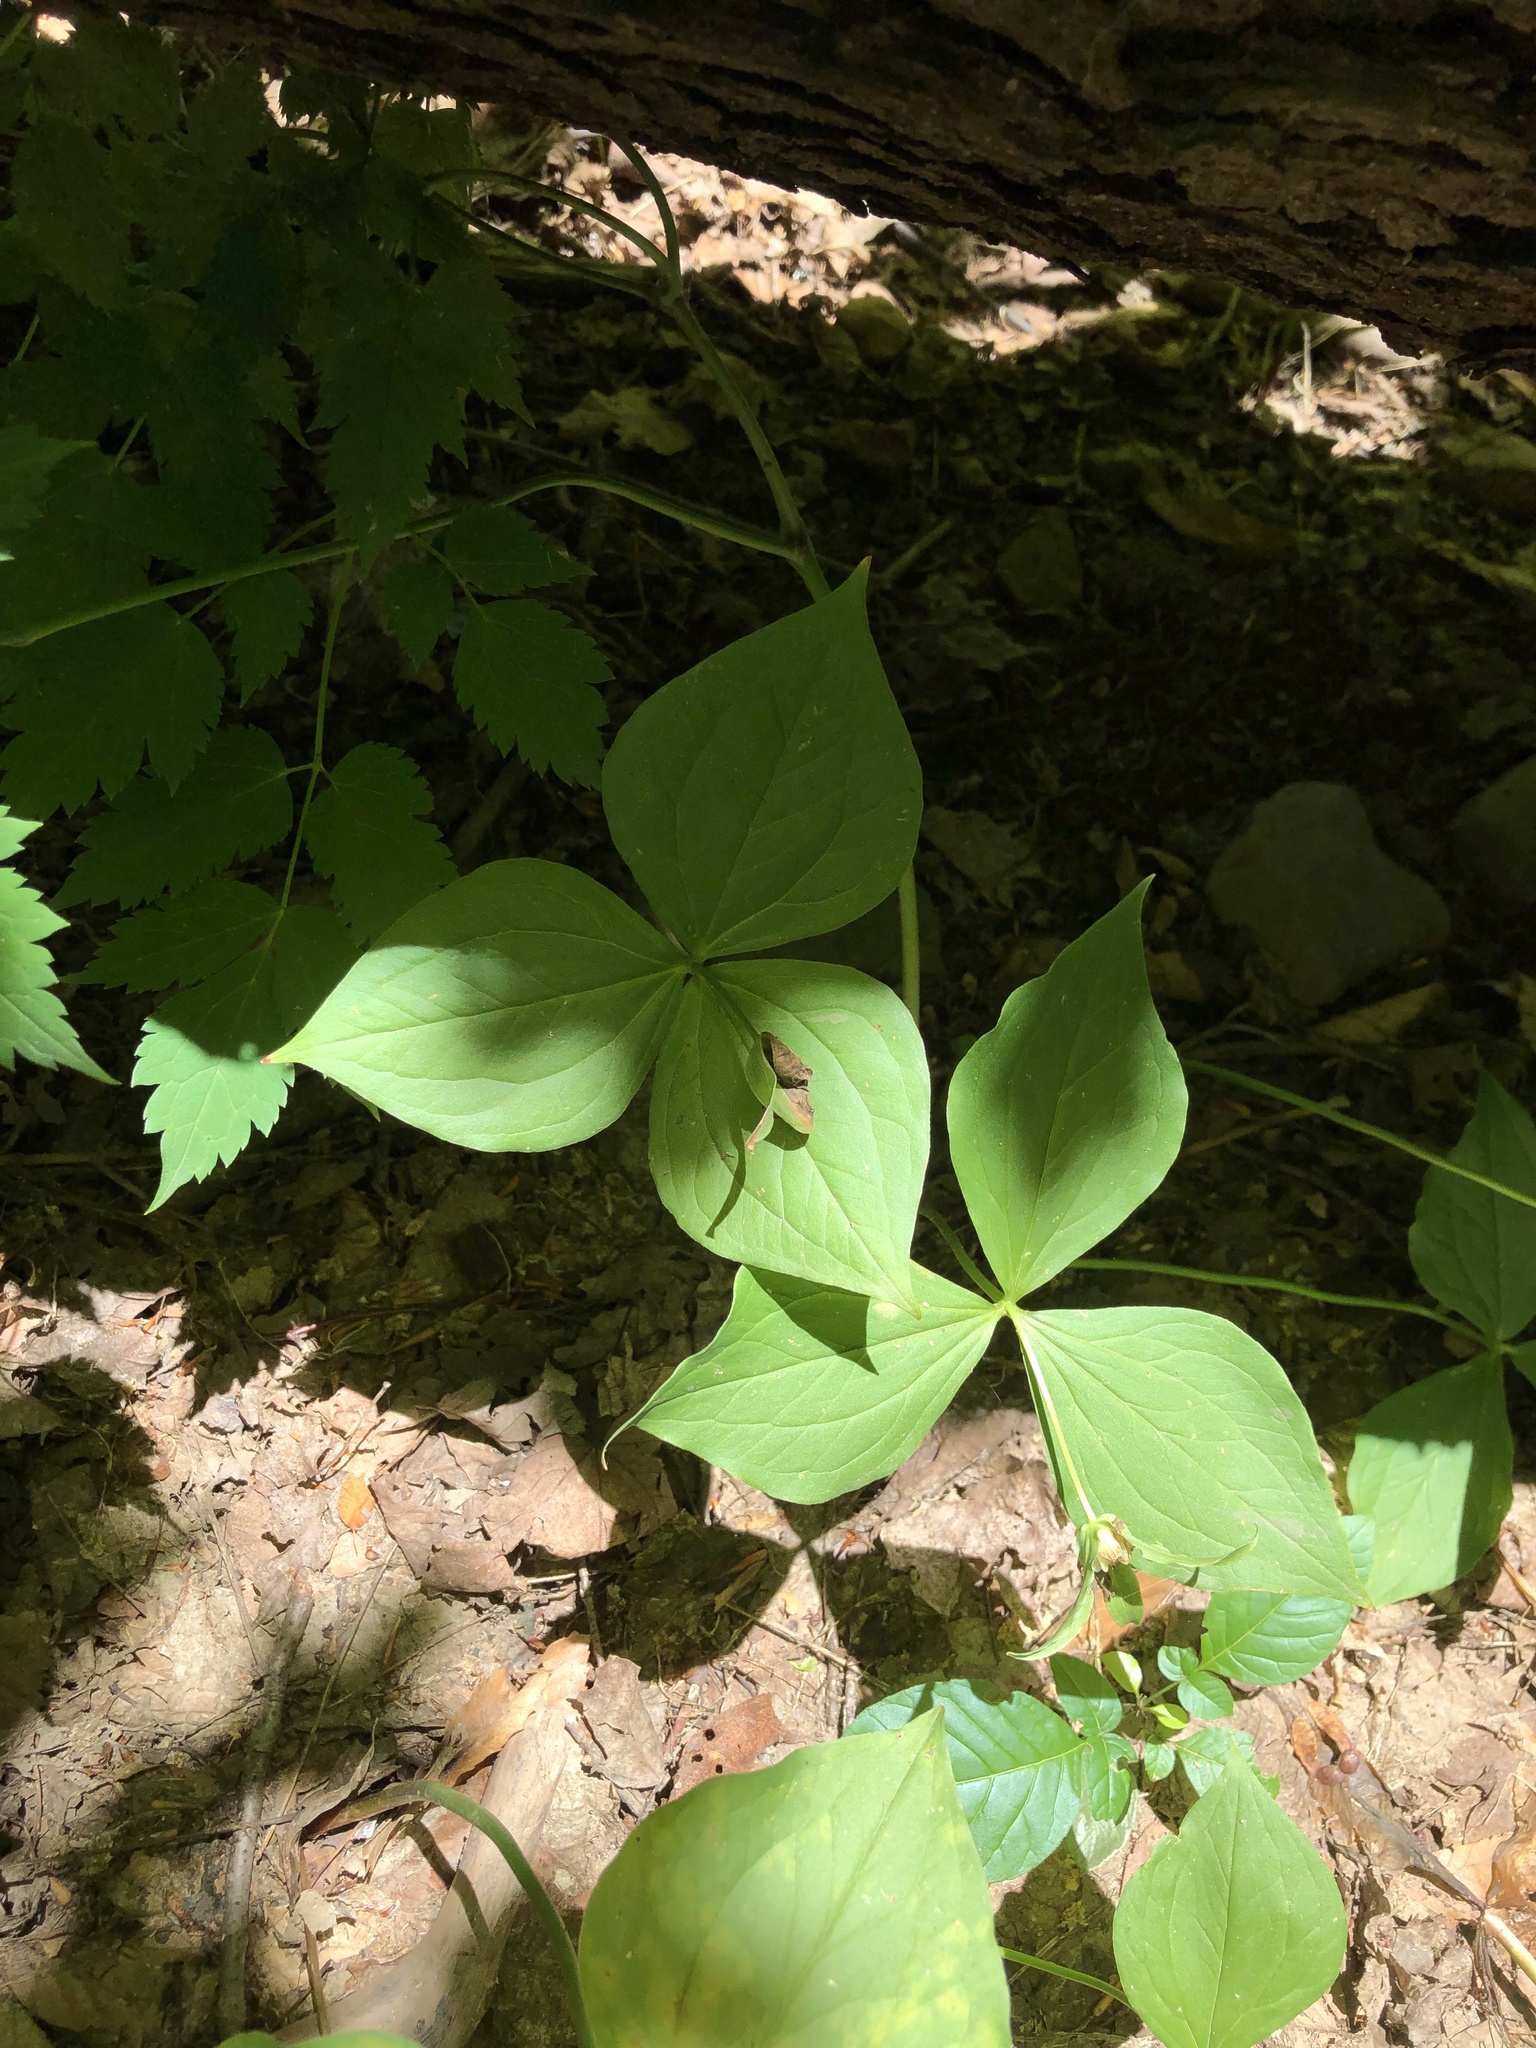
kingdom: Plantae
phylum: Tracheophyta
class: Liliopsida
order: Liliales
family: Melanthiaceae
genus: Trillium
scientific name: Trillium grandiflorum
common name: Great white trillium
